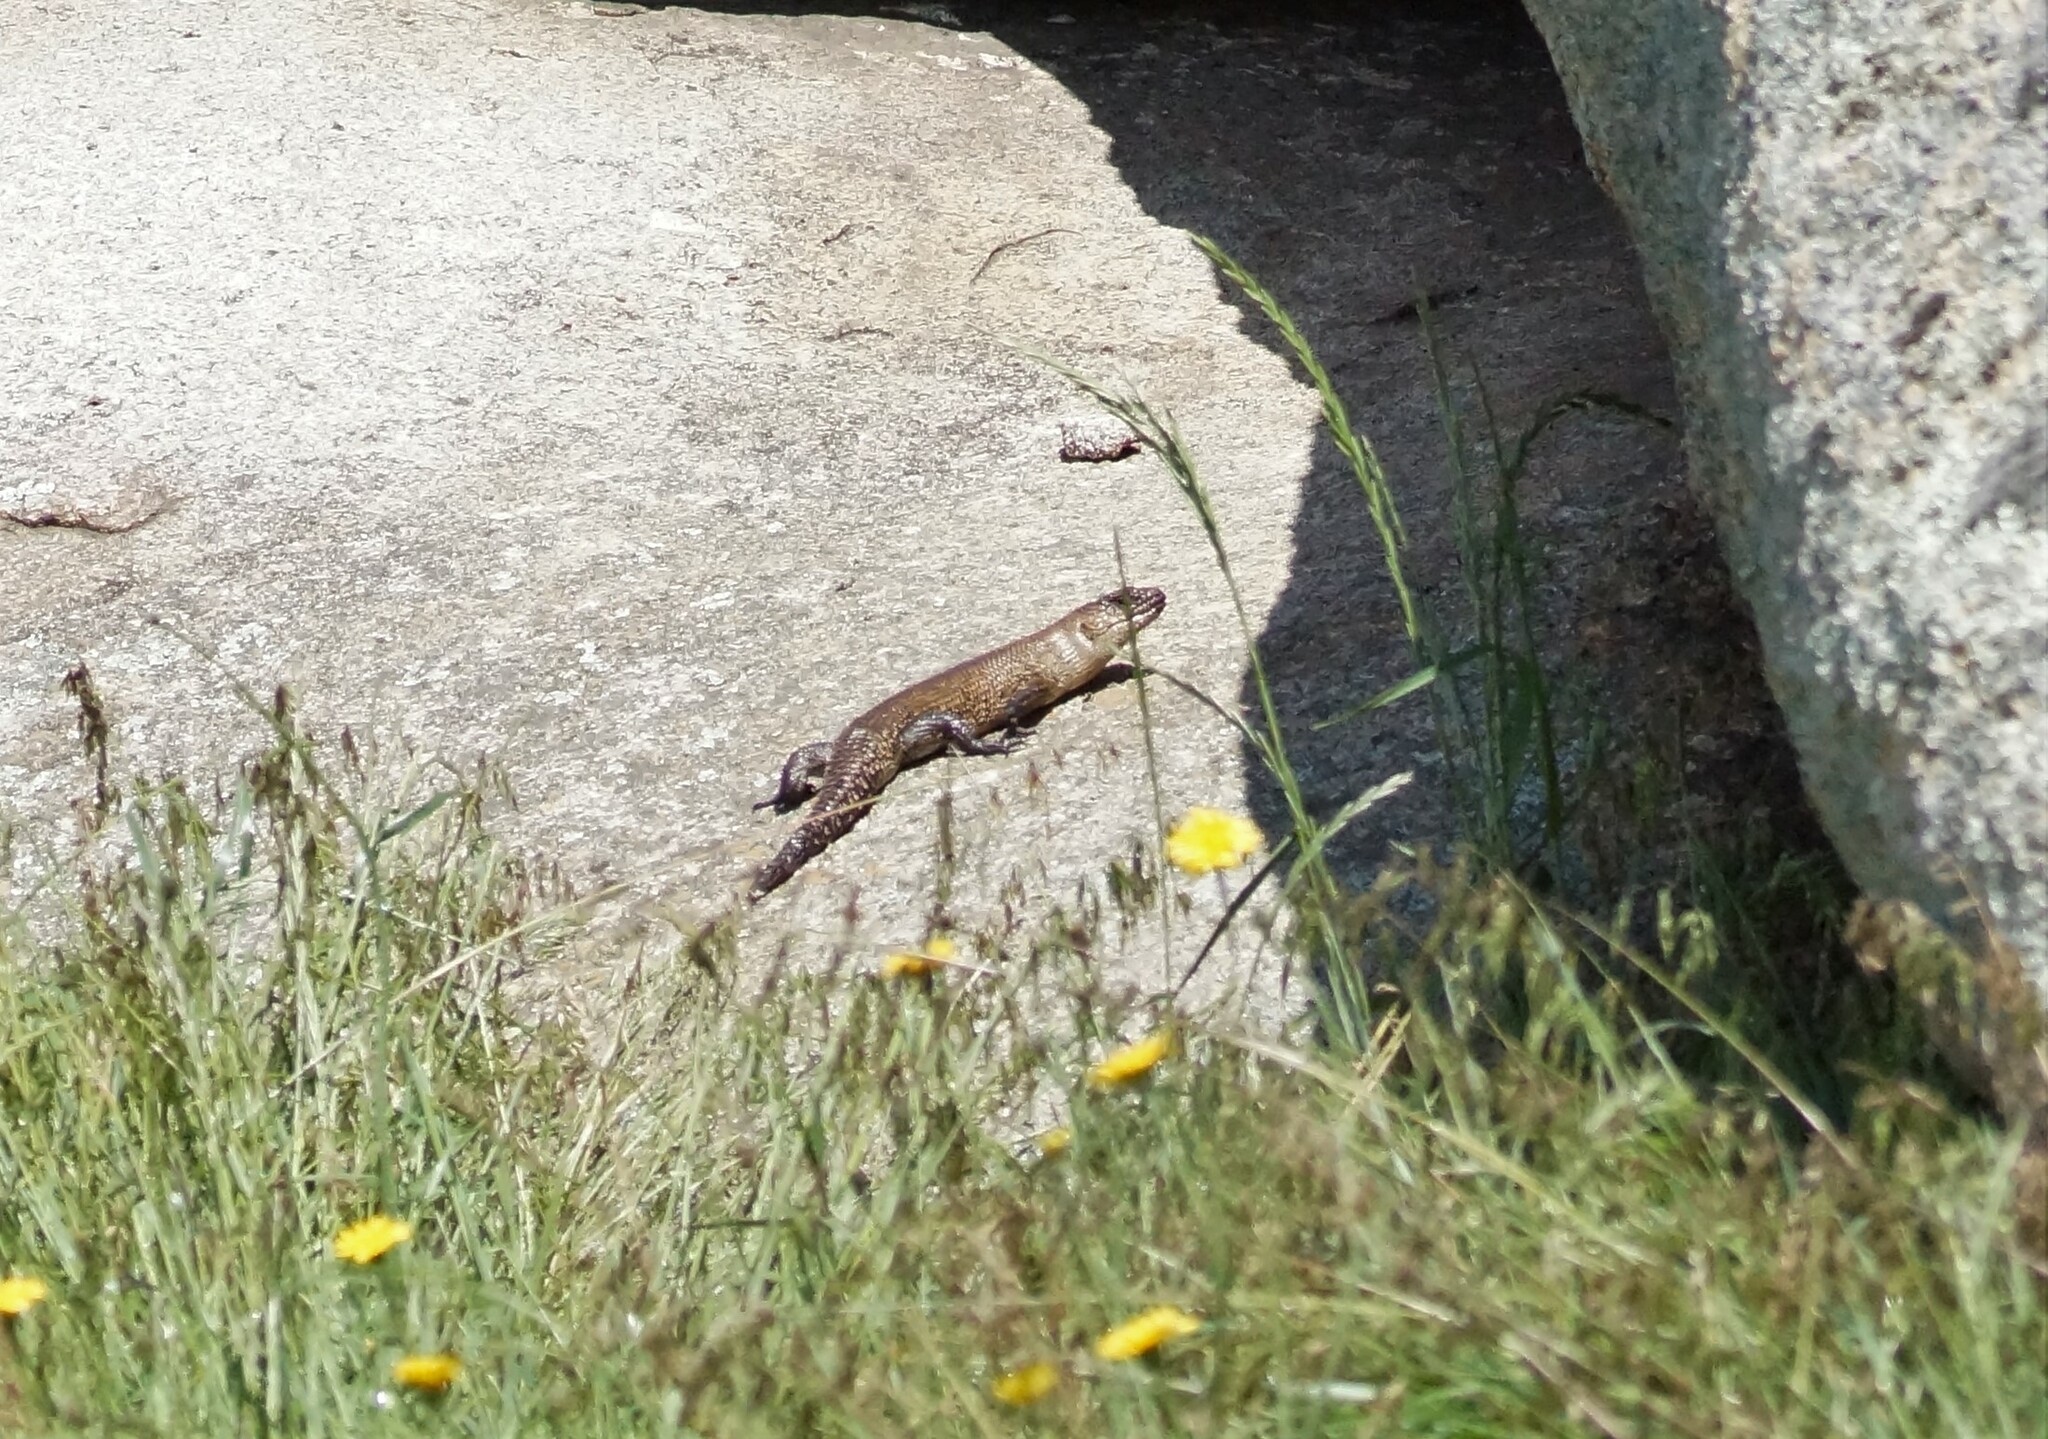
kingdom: Animalia
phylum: Chordata
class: Squamata
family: Scincidae
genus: Egernia
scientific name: Egernia cunninghami
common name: Cunningham's skink
